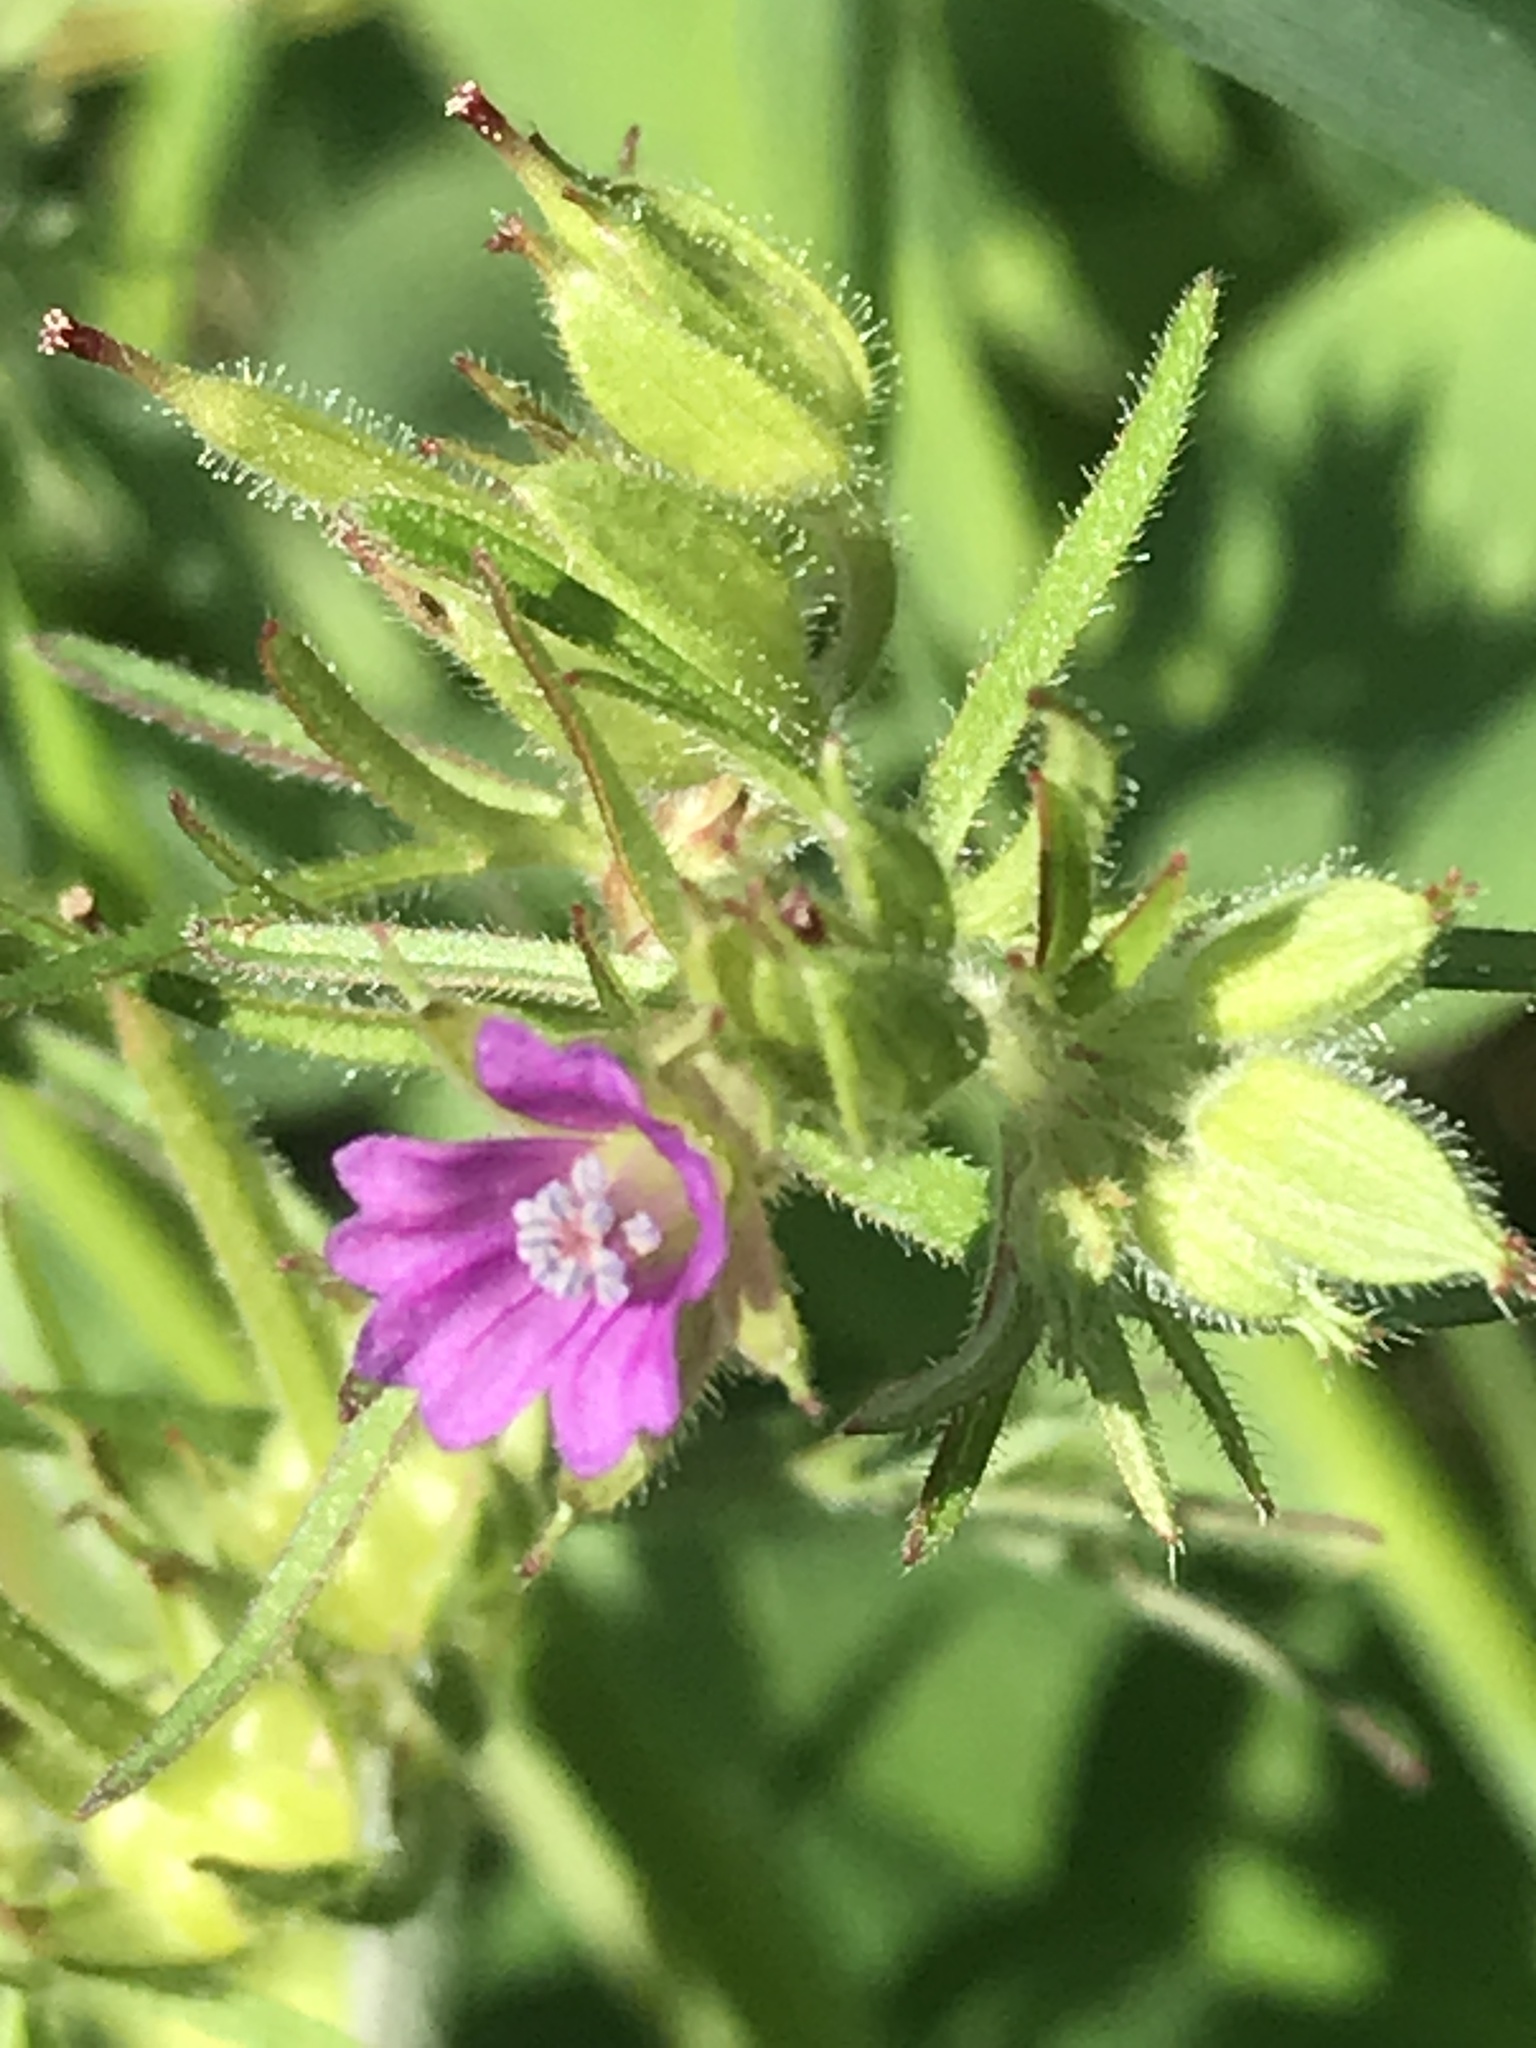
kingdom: Plantae
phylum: Tracheophyta
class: Magnoliopsida
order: Geraniales
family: Geraniaceae
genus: Geranium
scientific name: Geranium dissectum
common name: Cut-leaved crane's-bill
